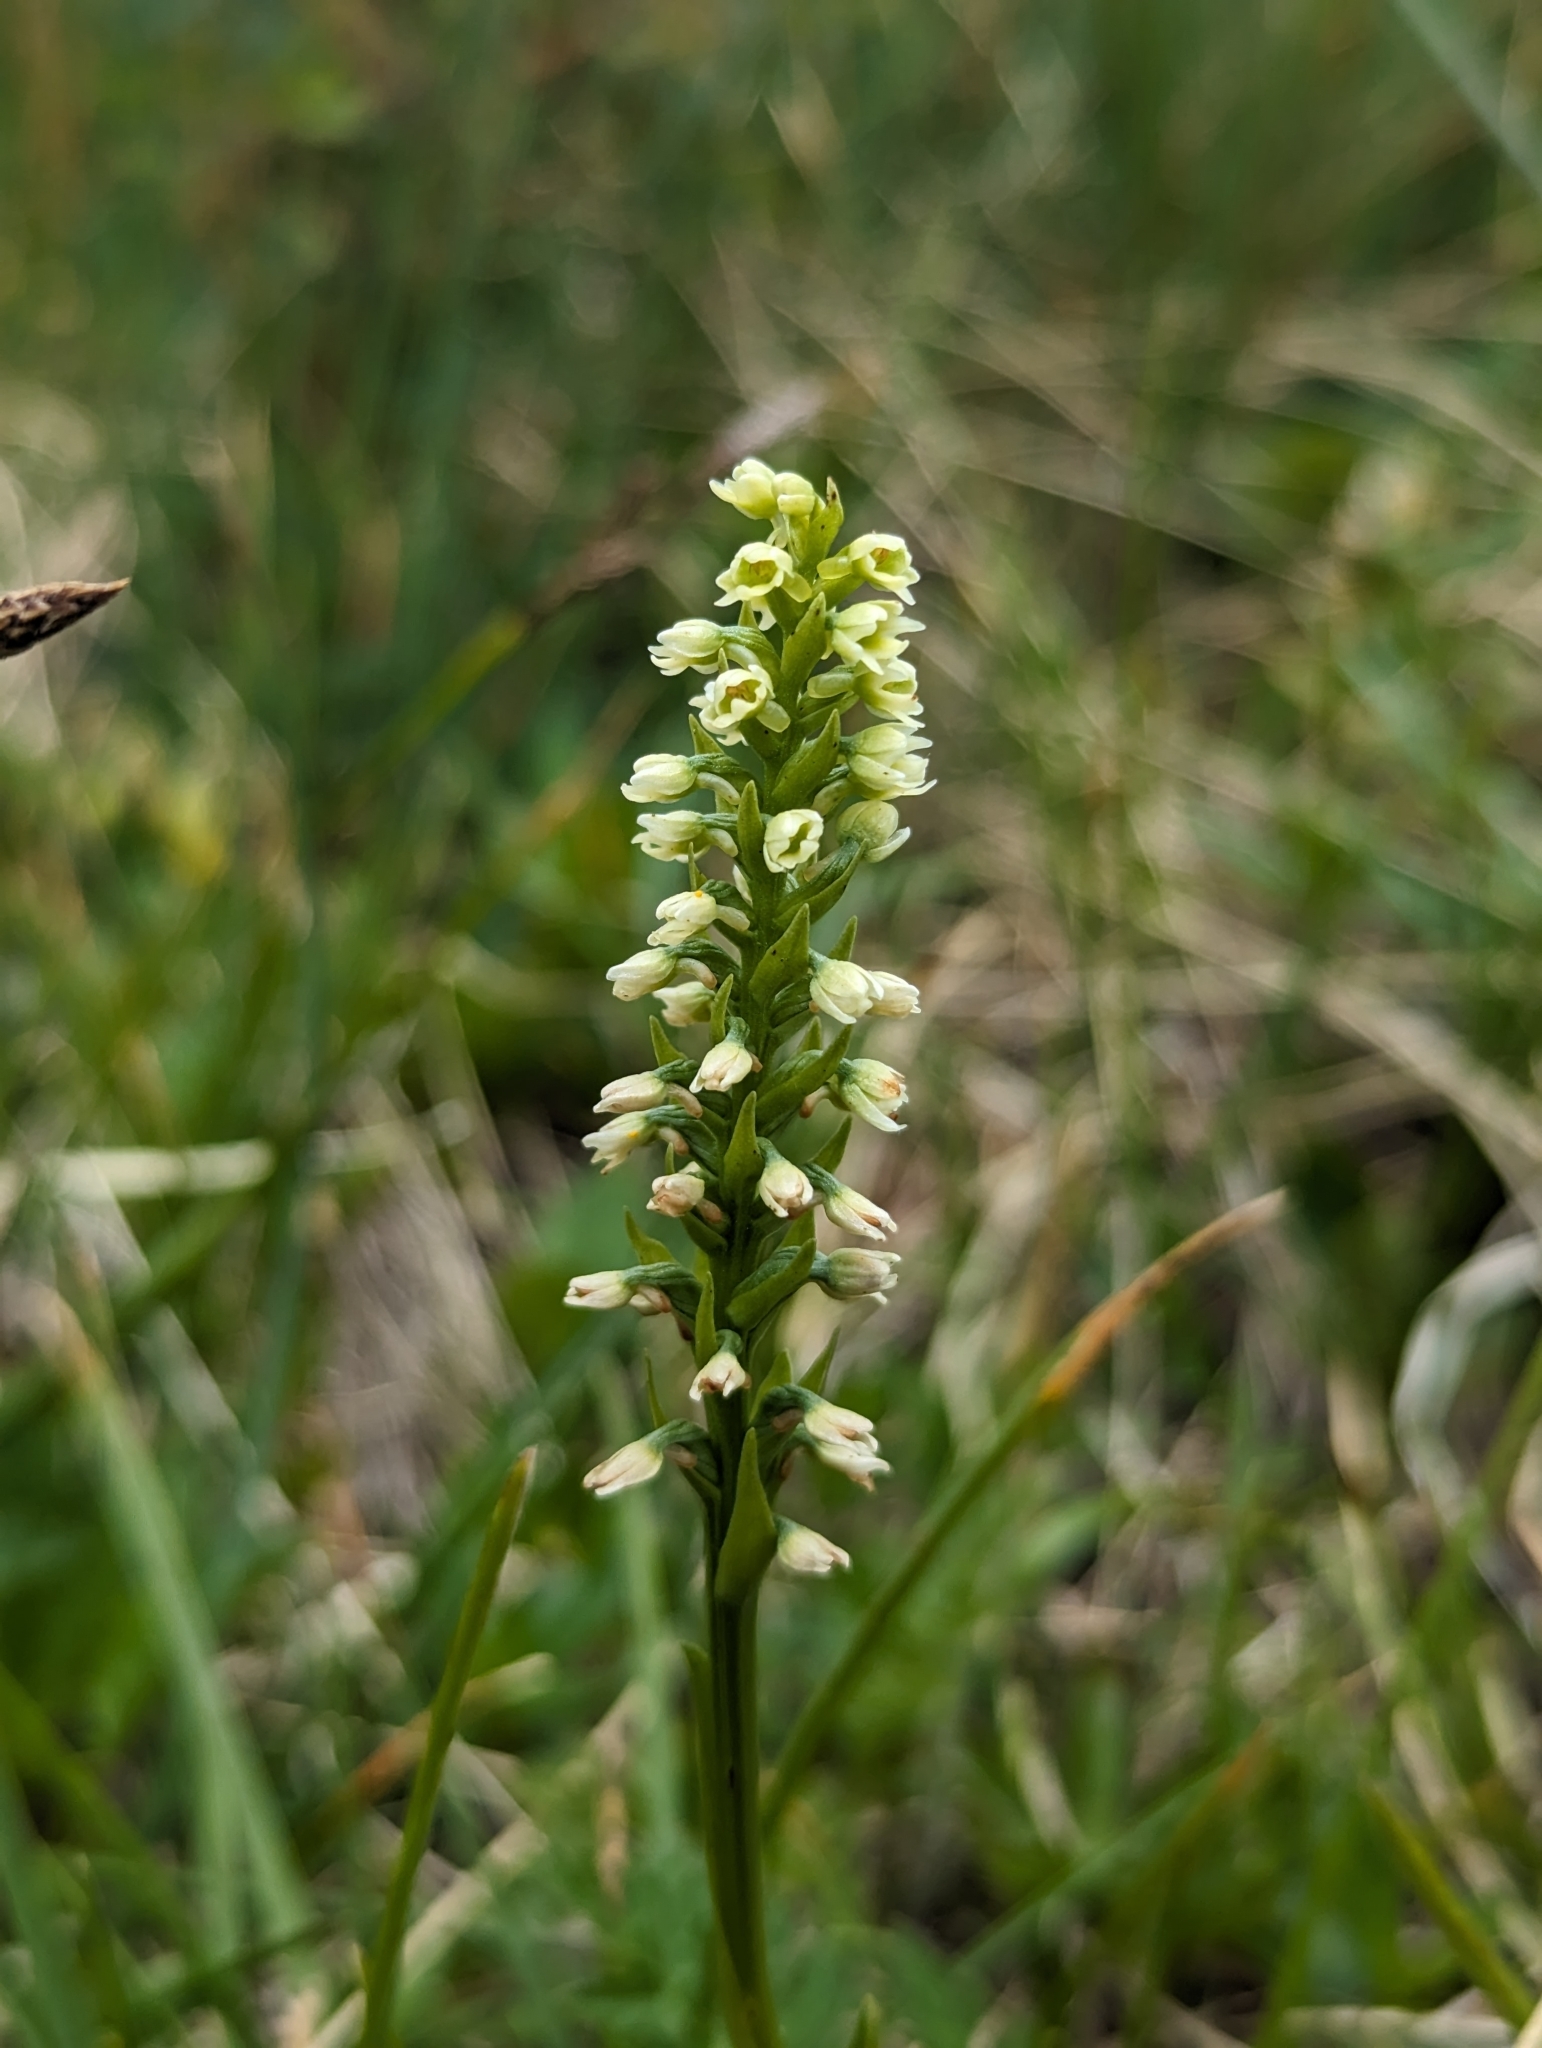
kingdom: Plantae
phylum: Tracheophyta
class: Liliopsida
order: Asparagales
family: Orchidaceae
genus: Pseudorchis
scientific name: Pseudorchis albida
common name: Small-white orchid
